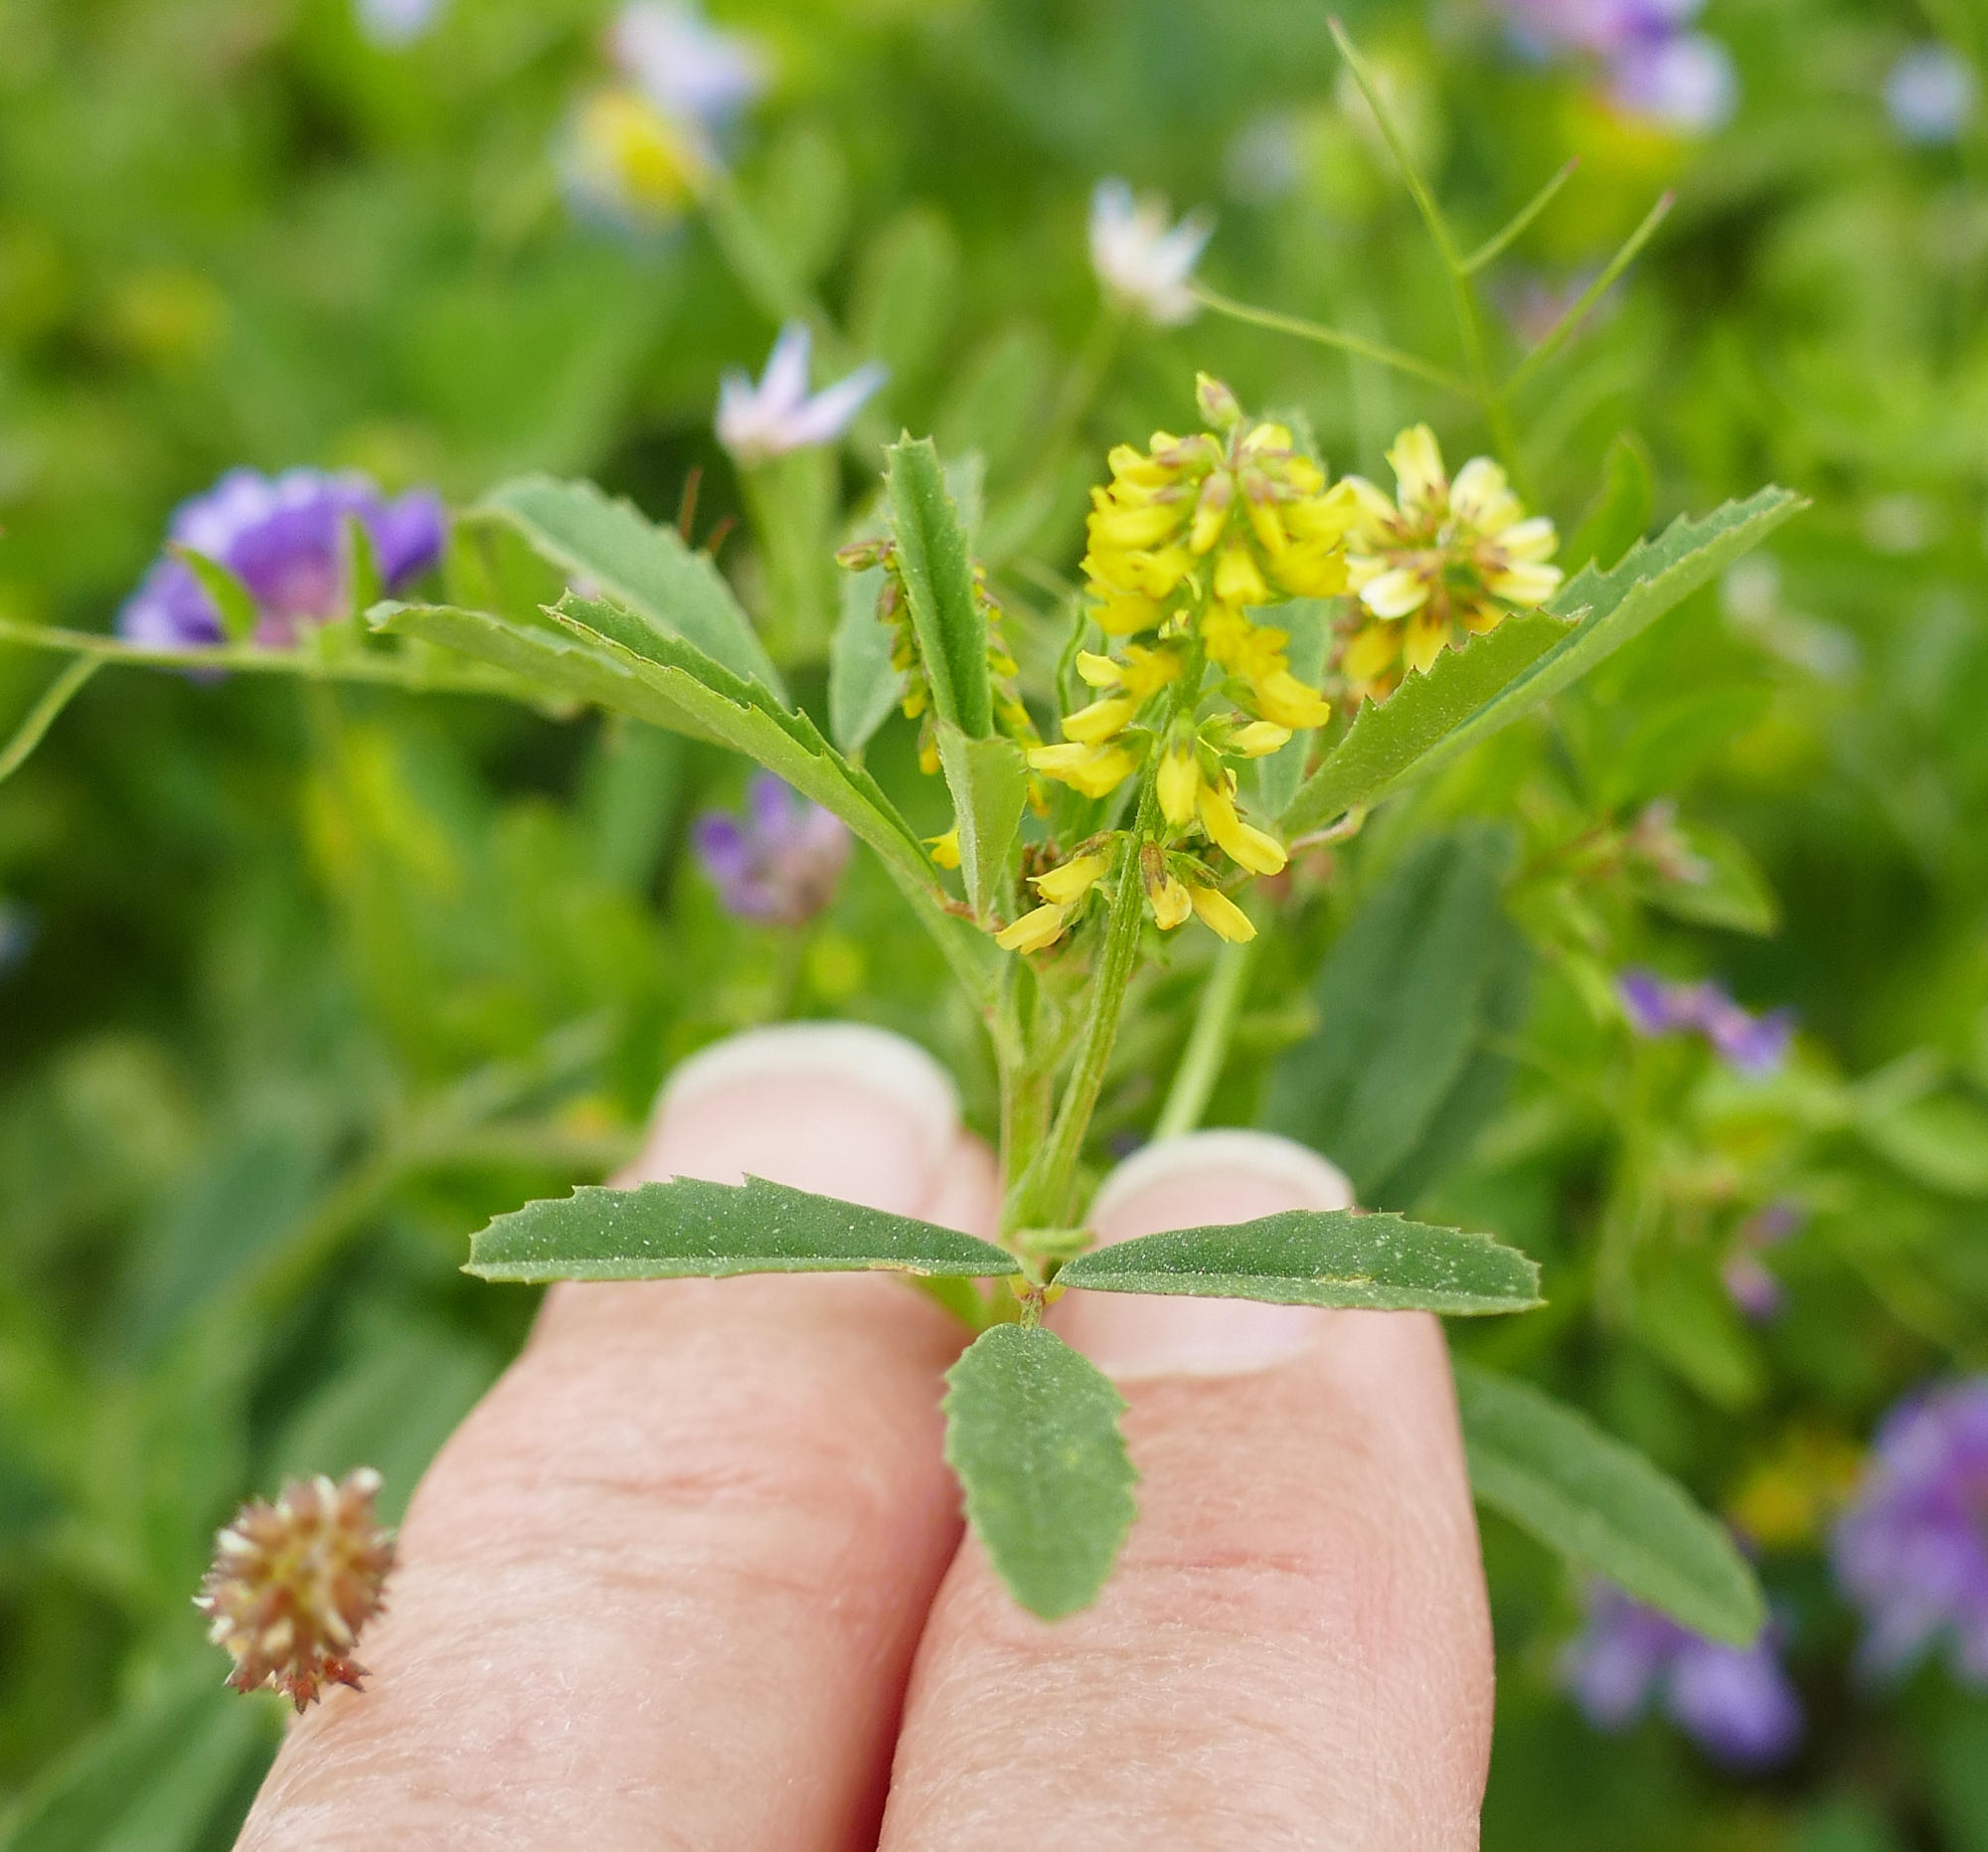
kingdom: Plantae
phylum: Tracheophyta
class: Magnoliopsida
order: Fabales
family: Fabaceae
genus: Melilotus
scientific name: Melilotus indicus
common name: Small melilot
